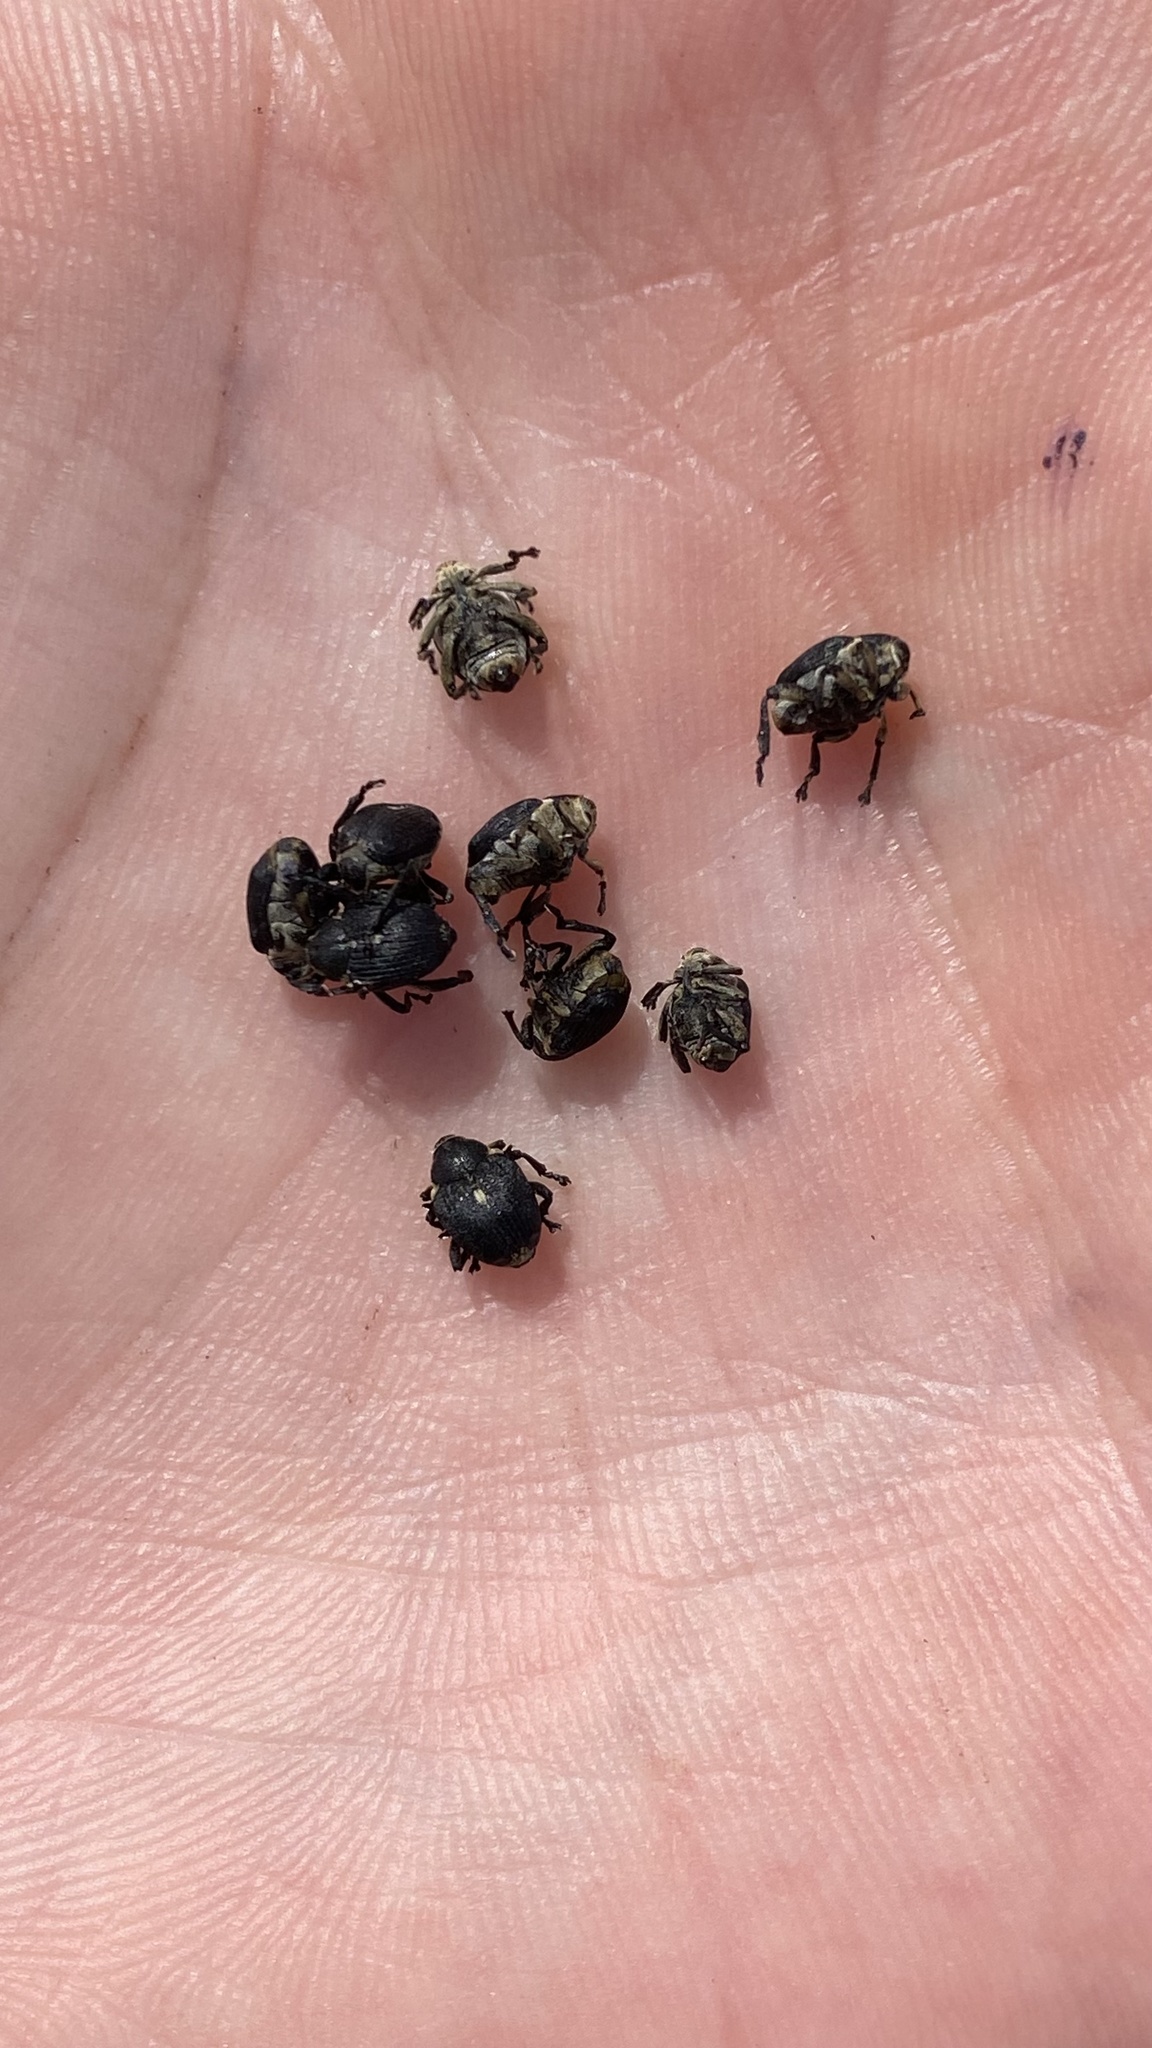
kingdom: Animalia
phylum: Arthropoda
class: Insecta
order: Coleoptera
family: Curculionidae
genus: Mononychus
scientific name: Mononychus punctumalbum
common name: Iris weevil
